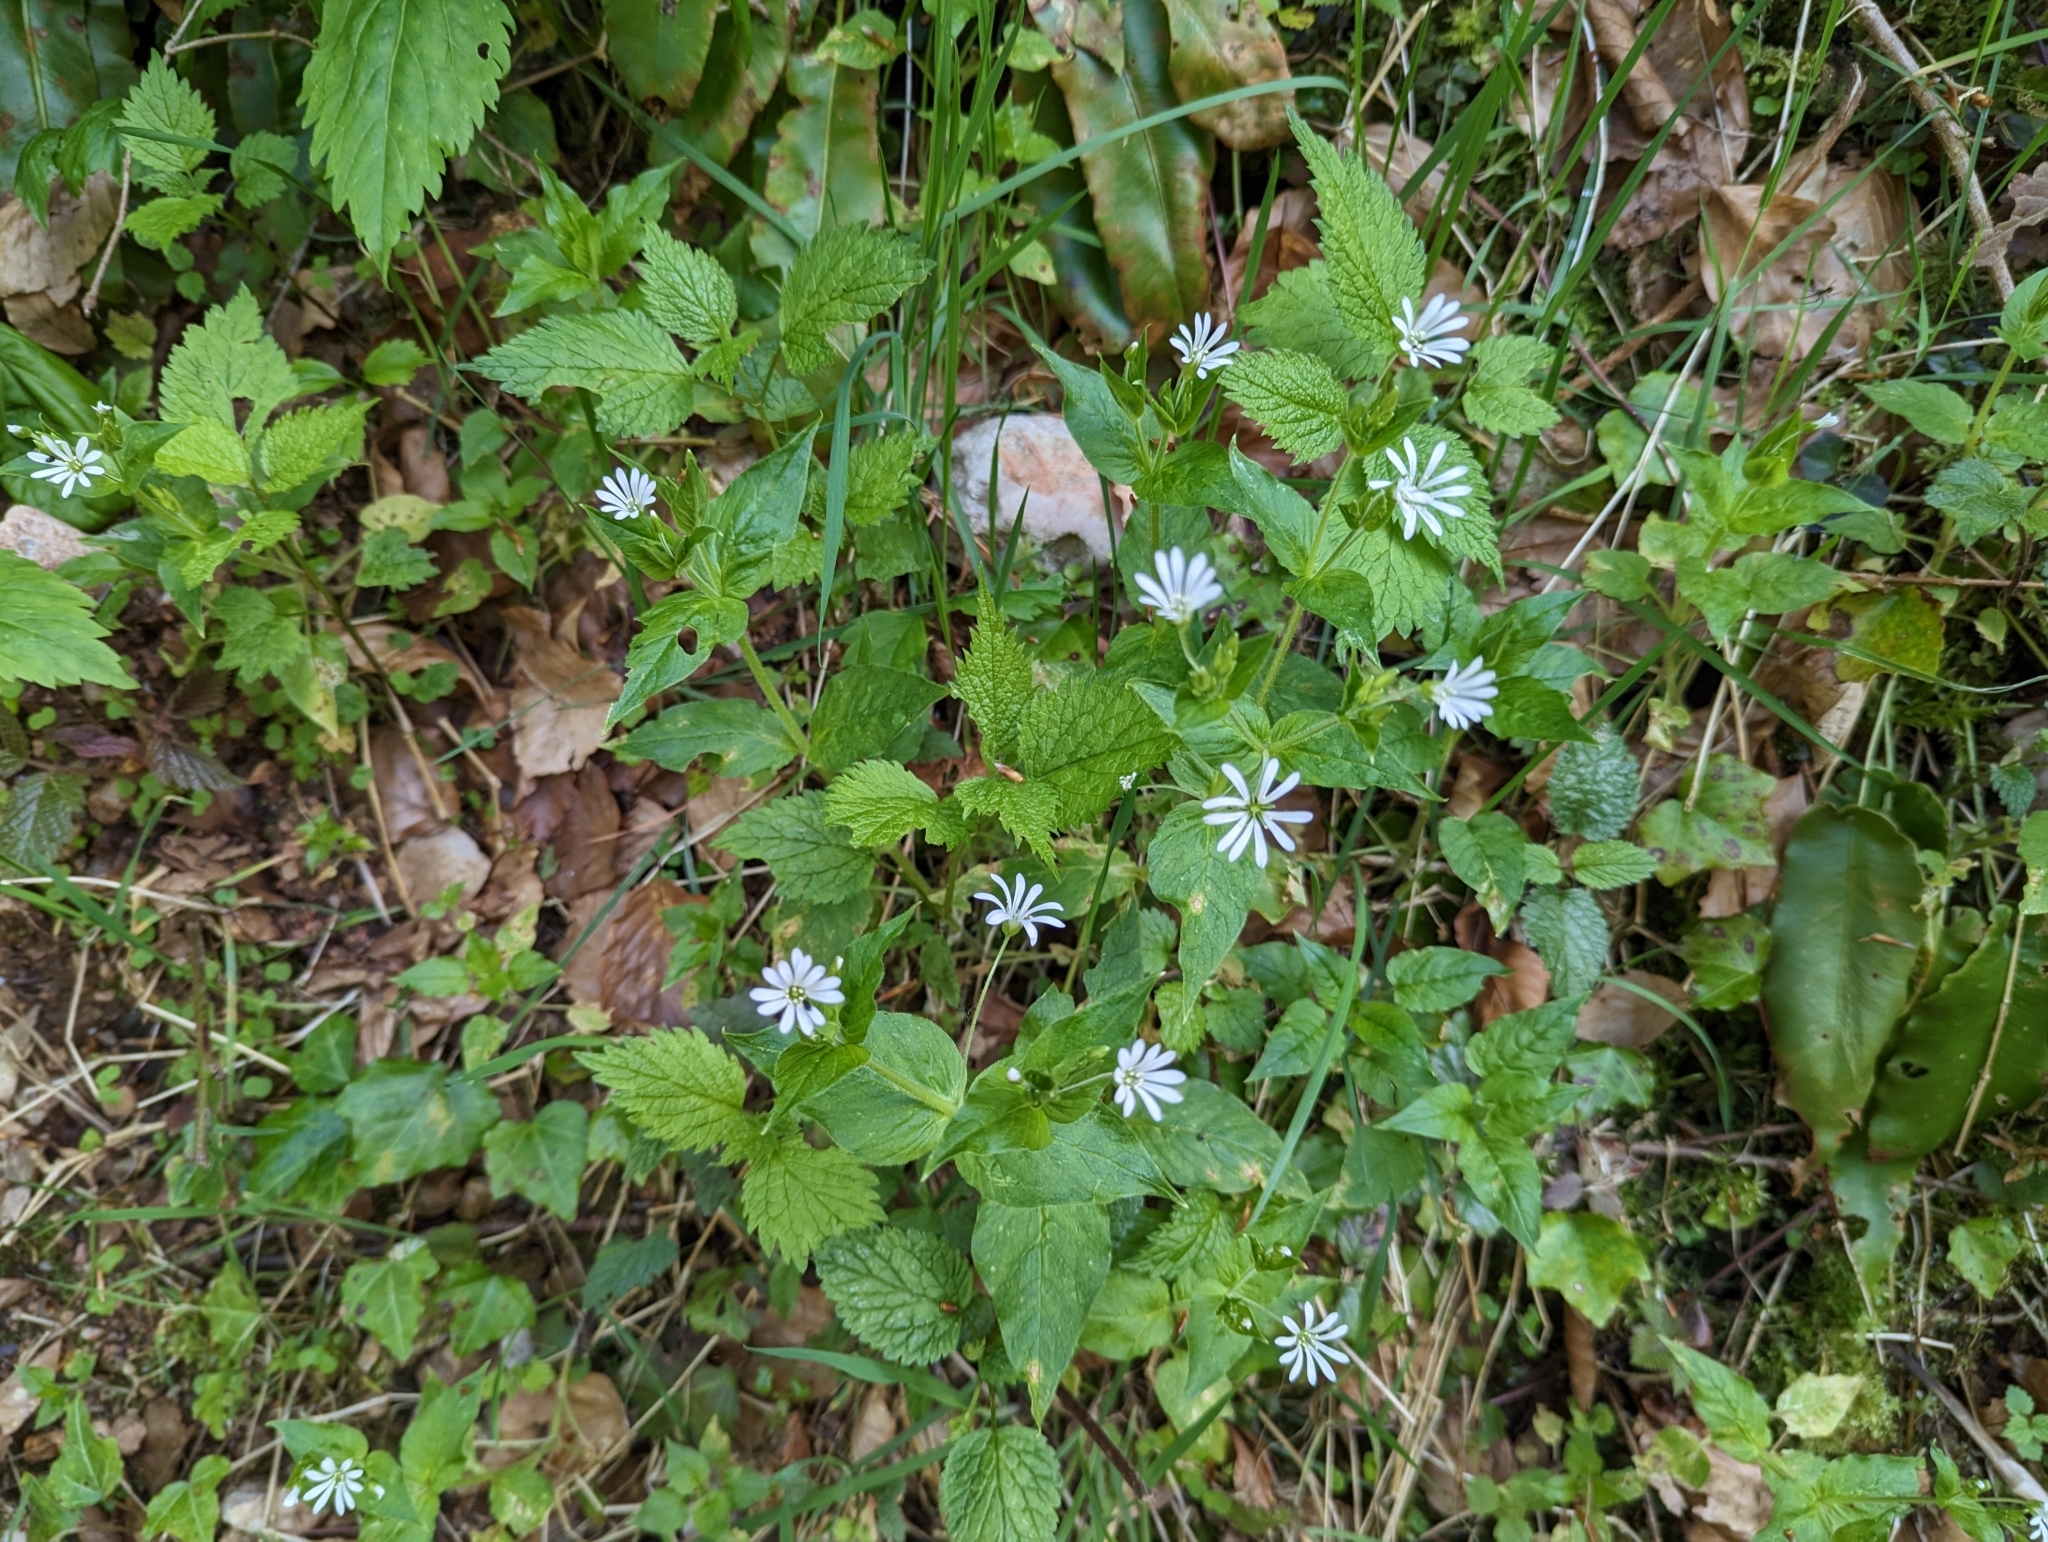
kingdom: Plantae
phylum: Tracheophyta
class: Magnoliopsida
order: Caryophyllales
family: Caryophyllaceae
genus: Stellaria
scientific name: Stellaria nemorum
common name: Wood stitchwort
